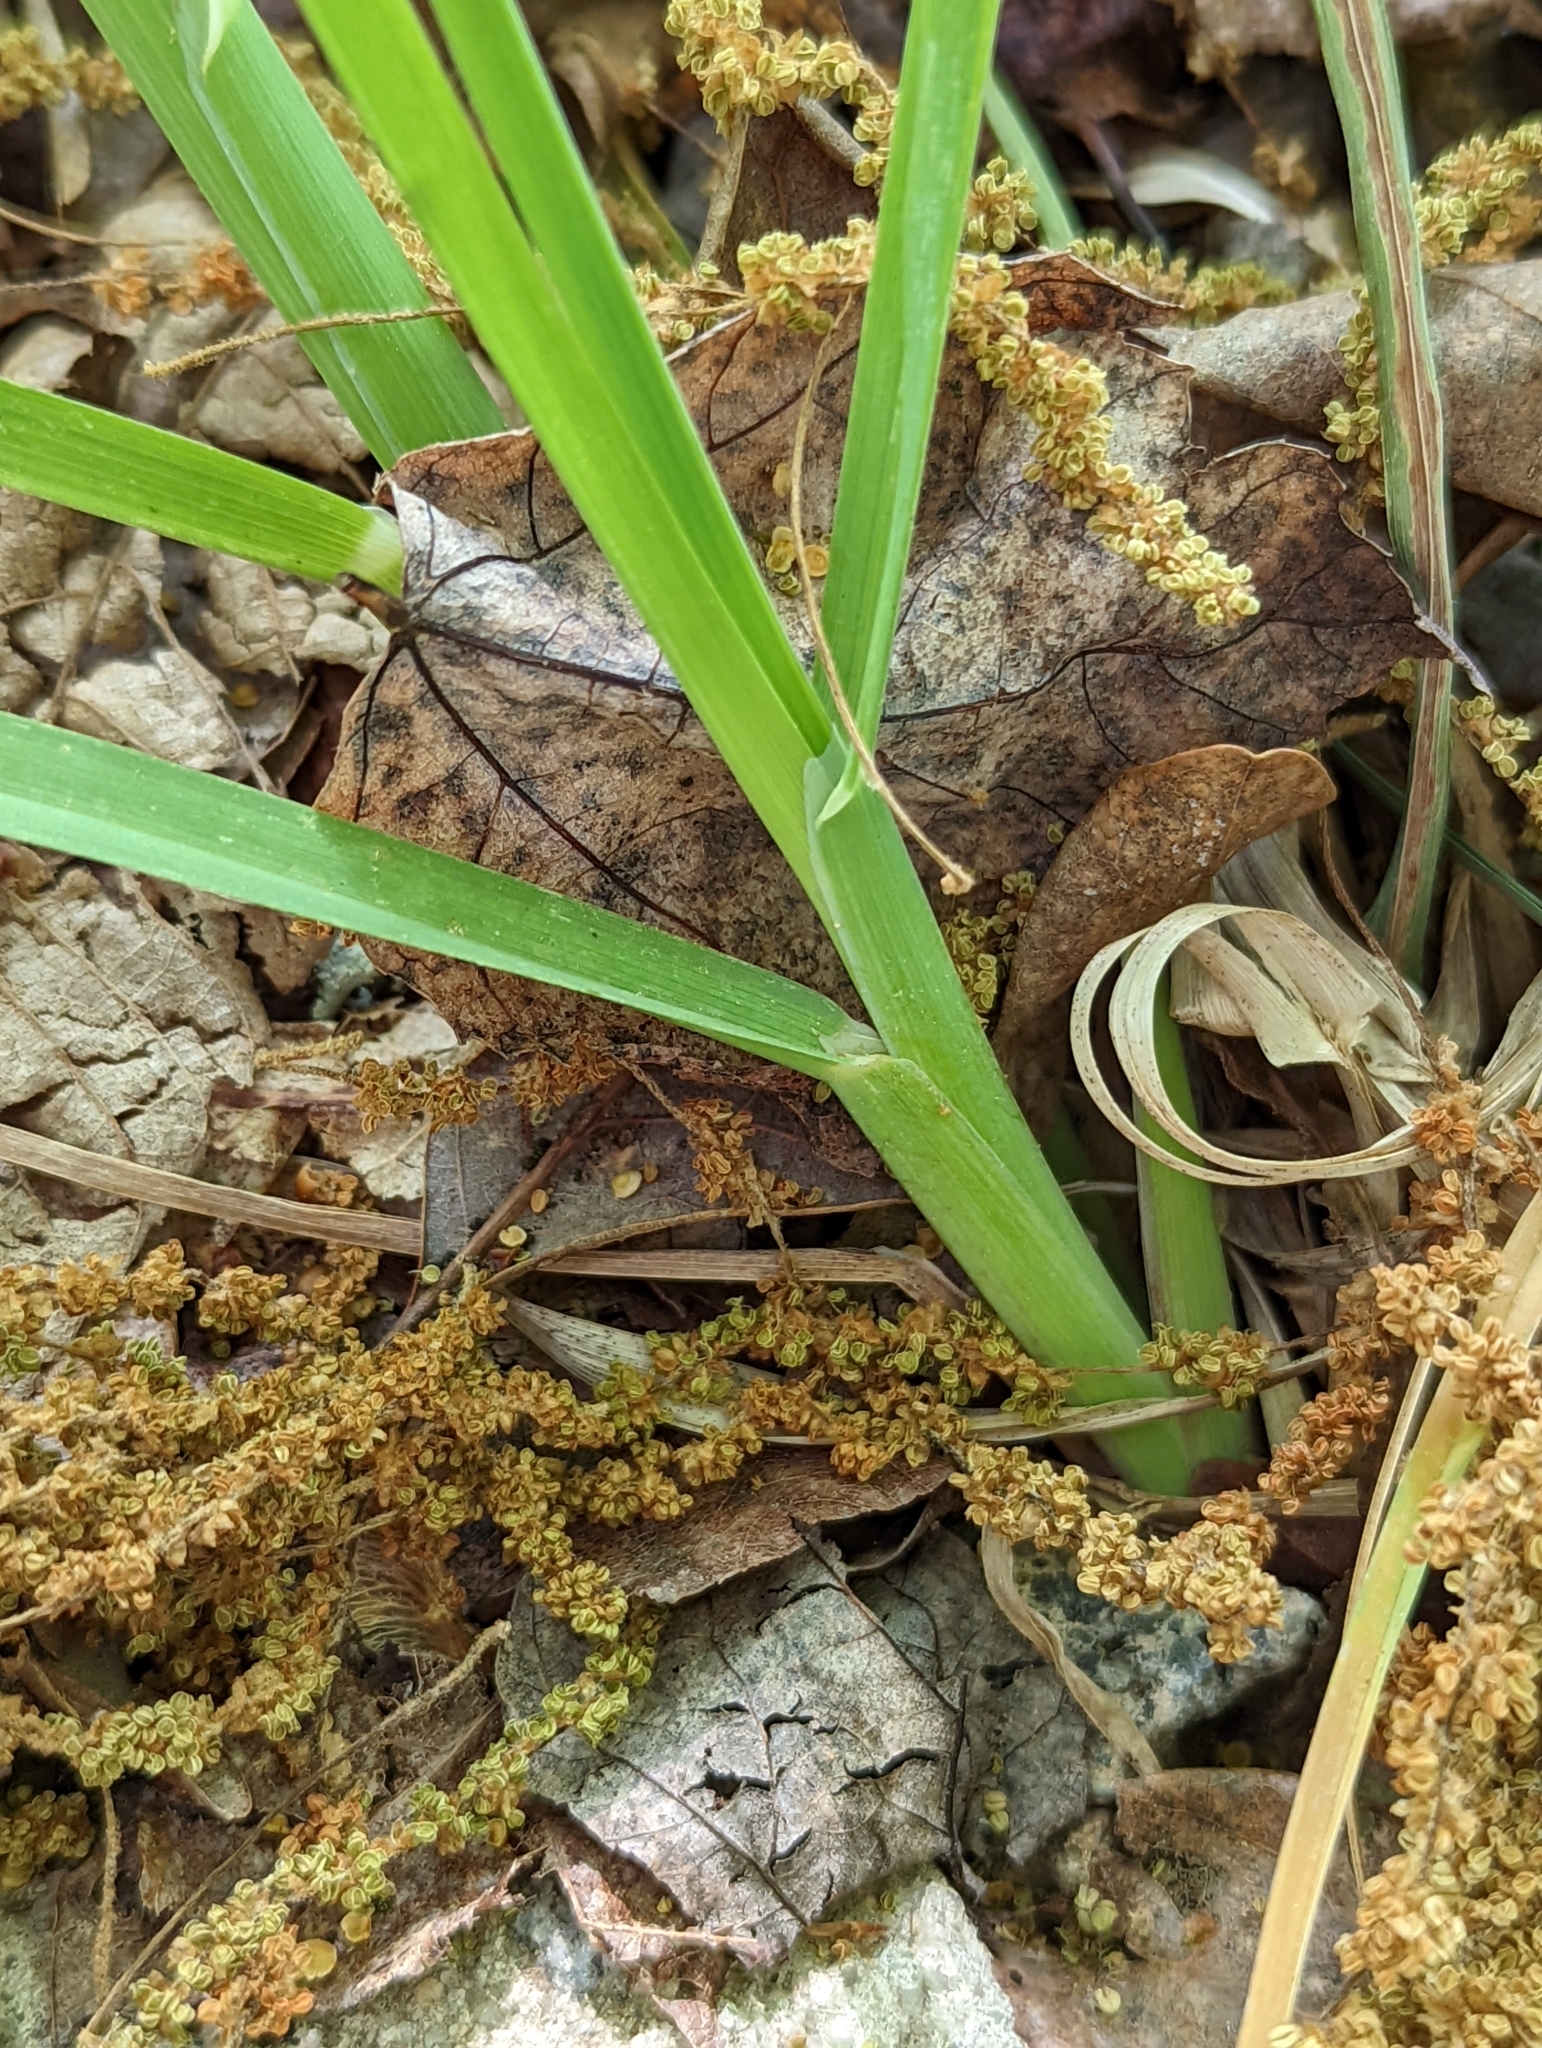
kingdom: Plantae
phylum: Tracheophyta
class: Liliopsida
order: Poales
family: Poaceae
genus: Dactylis
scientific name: Dactylis glomerata
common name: Orchardgrass
